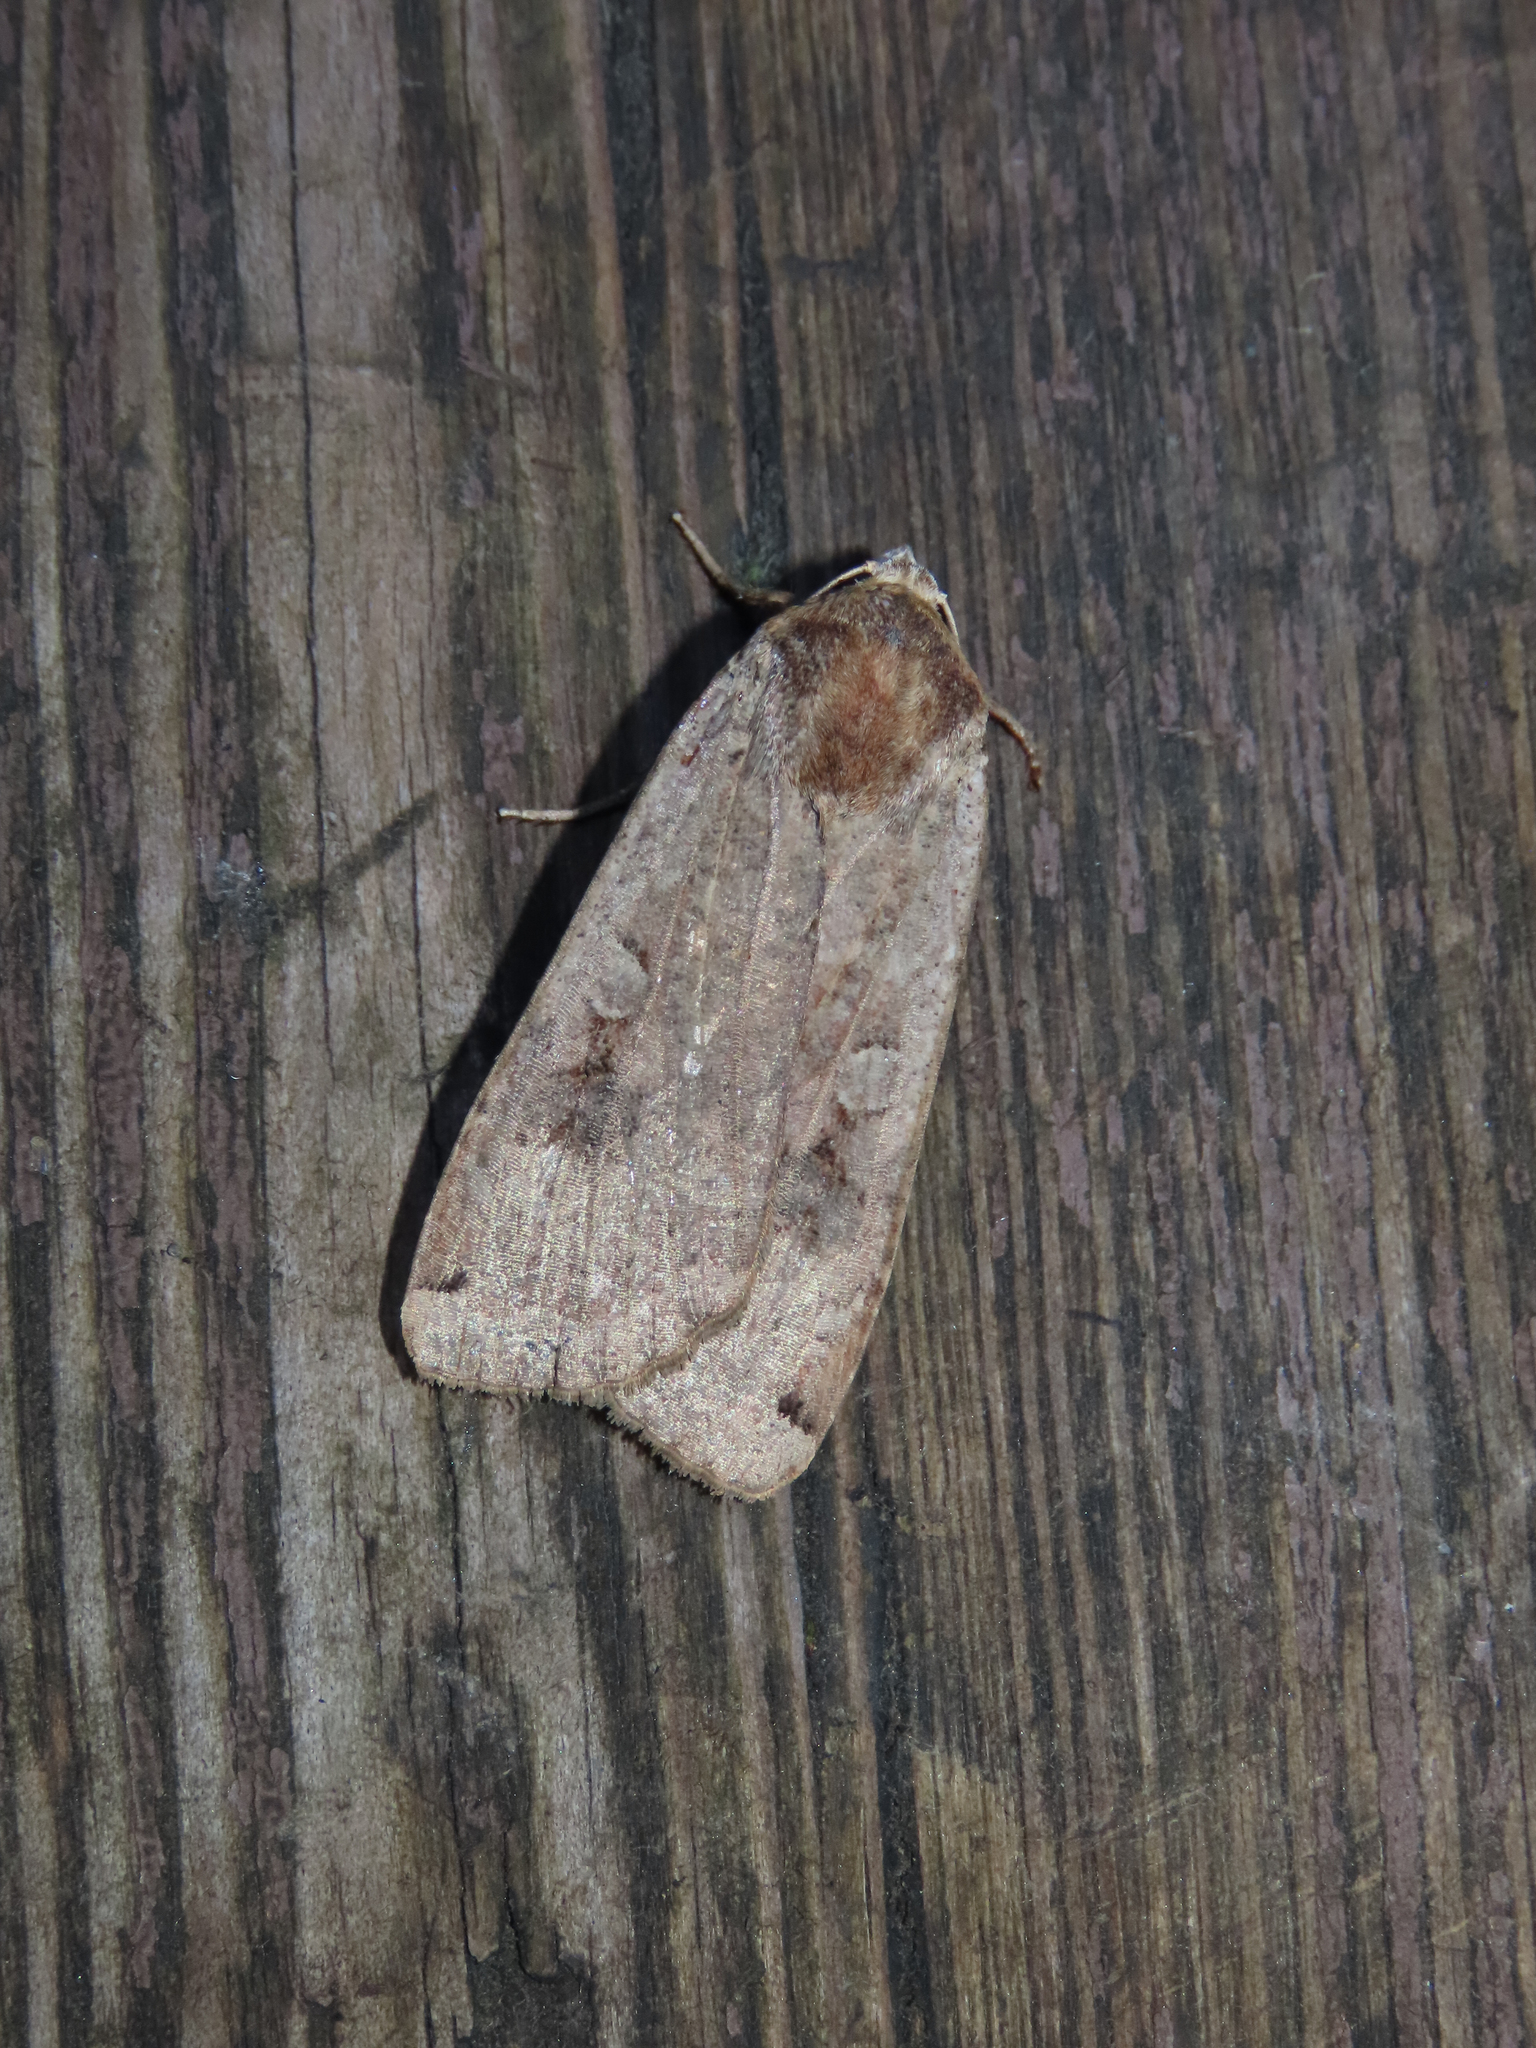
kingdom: Animalia
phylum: Arthropoda
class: Insecta
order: Lepidoptera
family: Noctuidae
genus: Noctua
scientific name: Noctua pronuba
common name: Large yellow underwing
